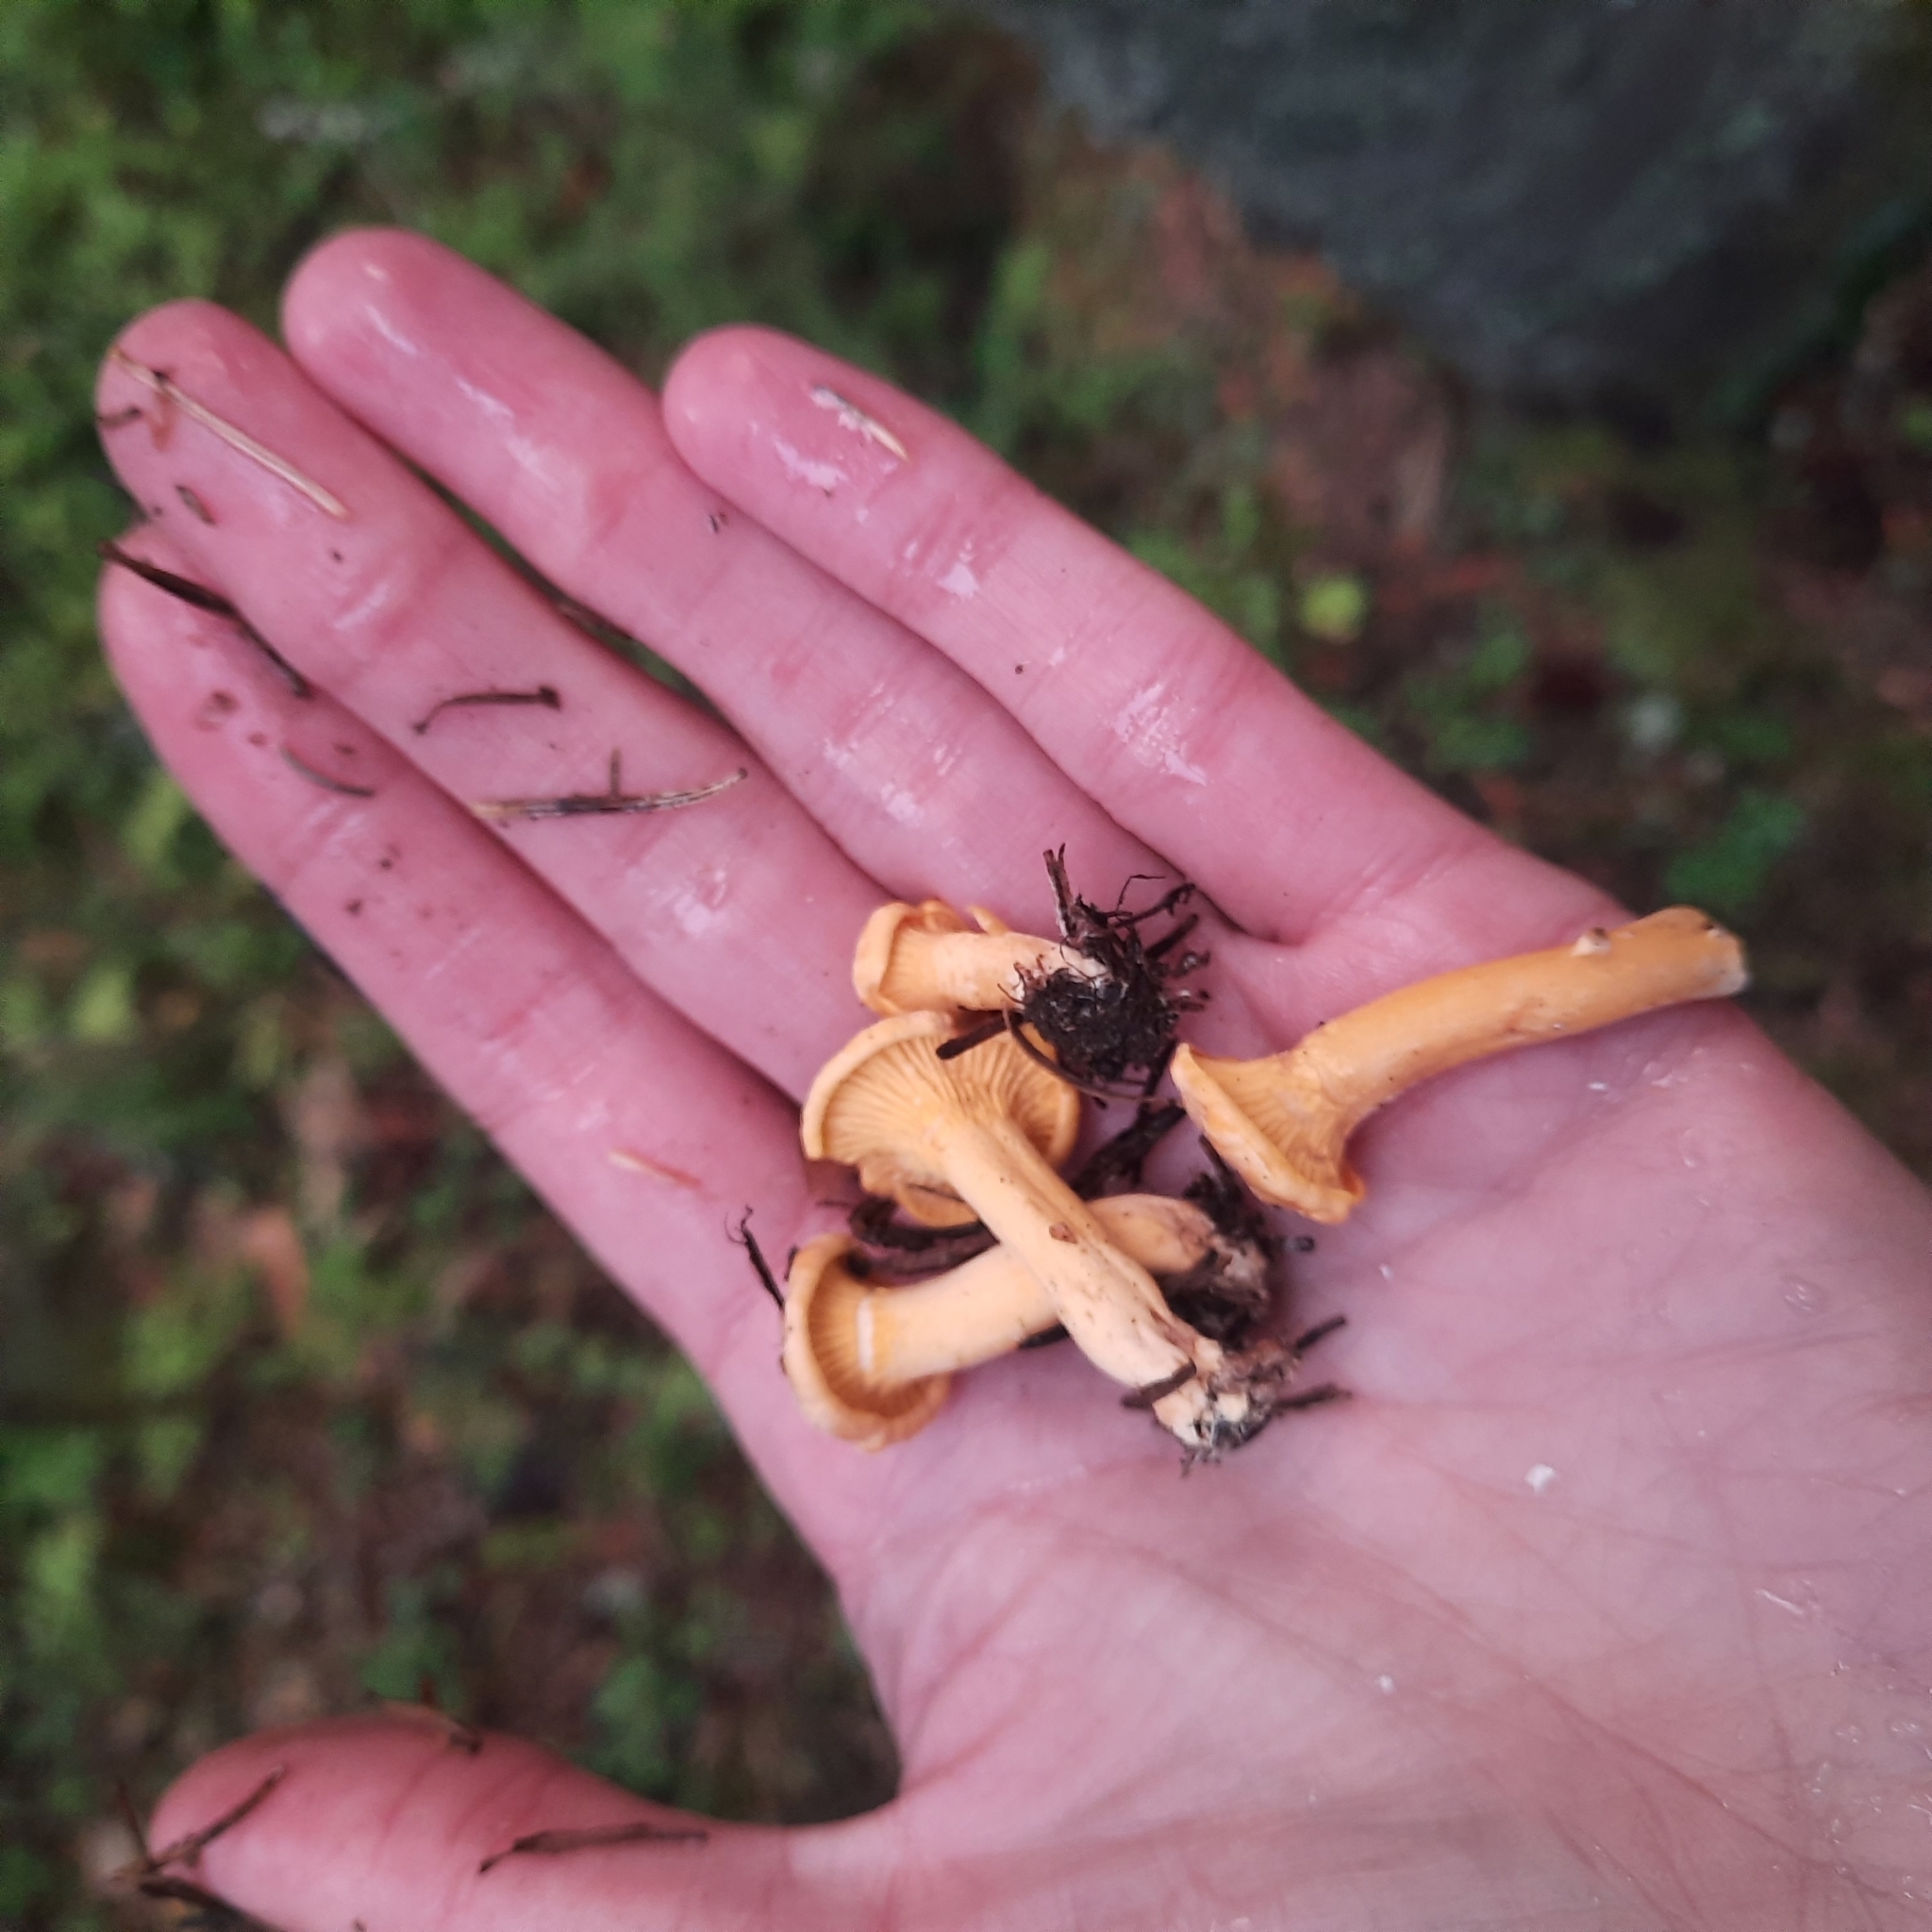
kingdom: Fungi
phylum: Basidiomycota
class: Agaricomycetes
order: Cantharellales
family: Hydnaceae
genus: Cantharellus
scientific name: Cantharellus cibarius
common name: Chanterelle
